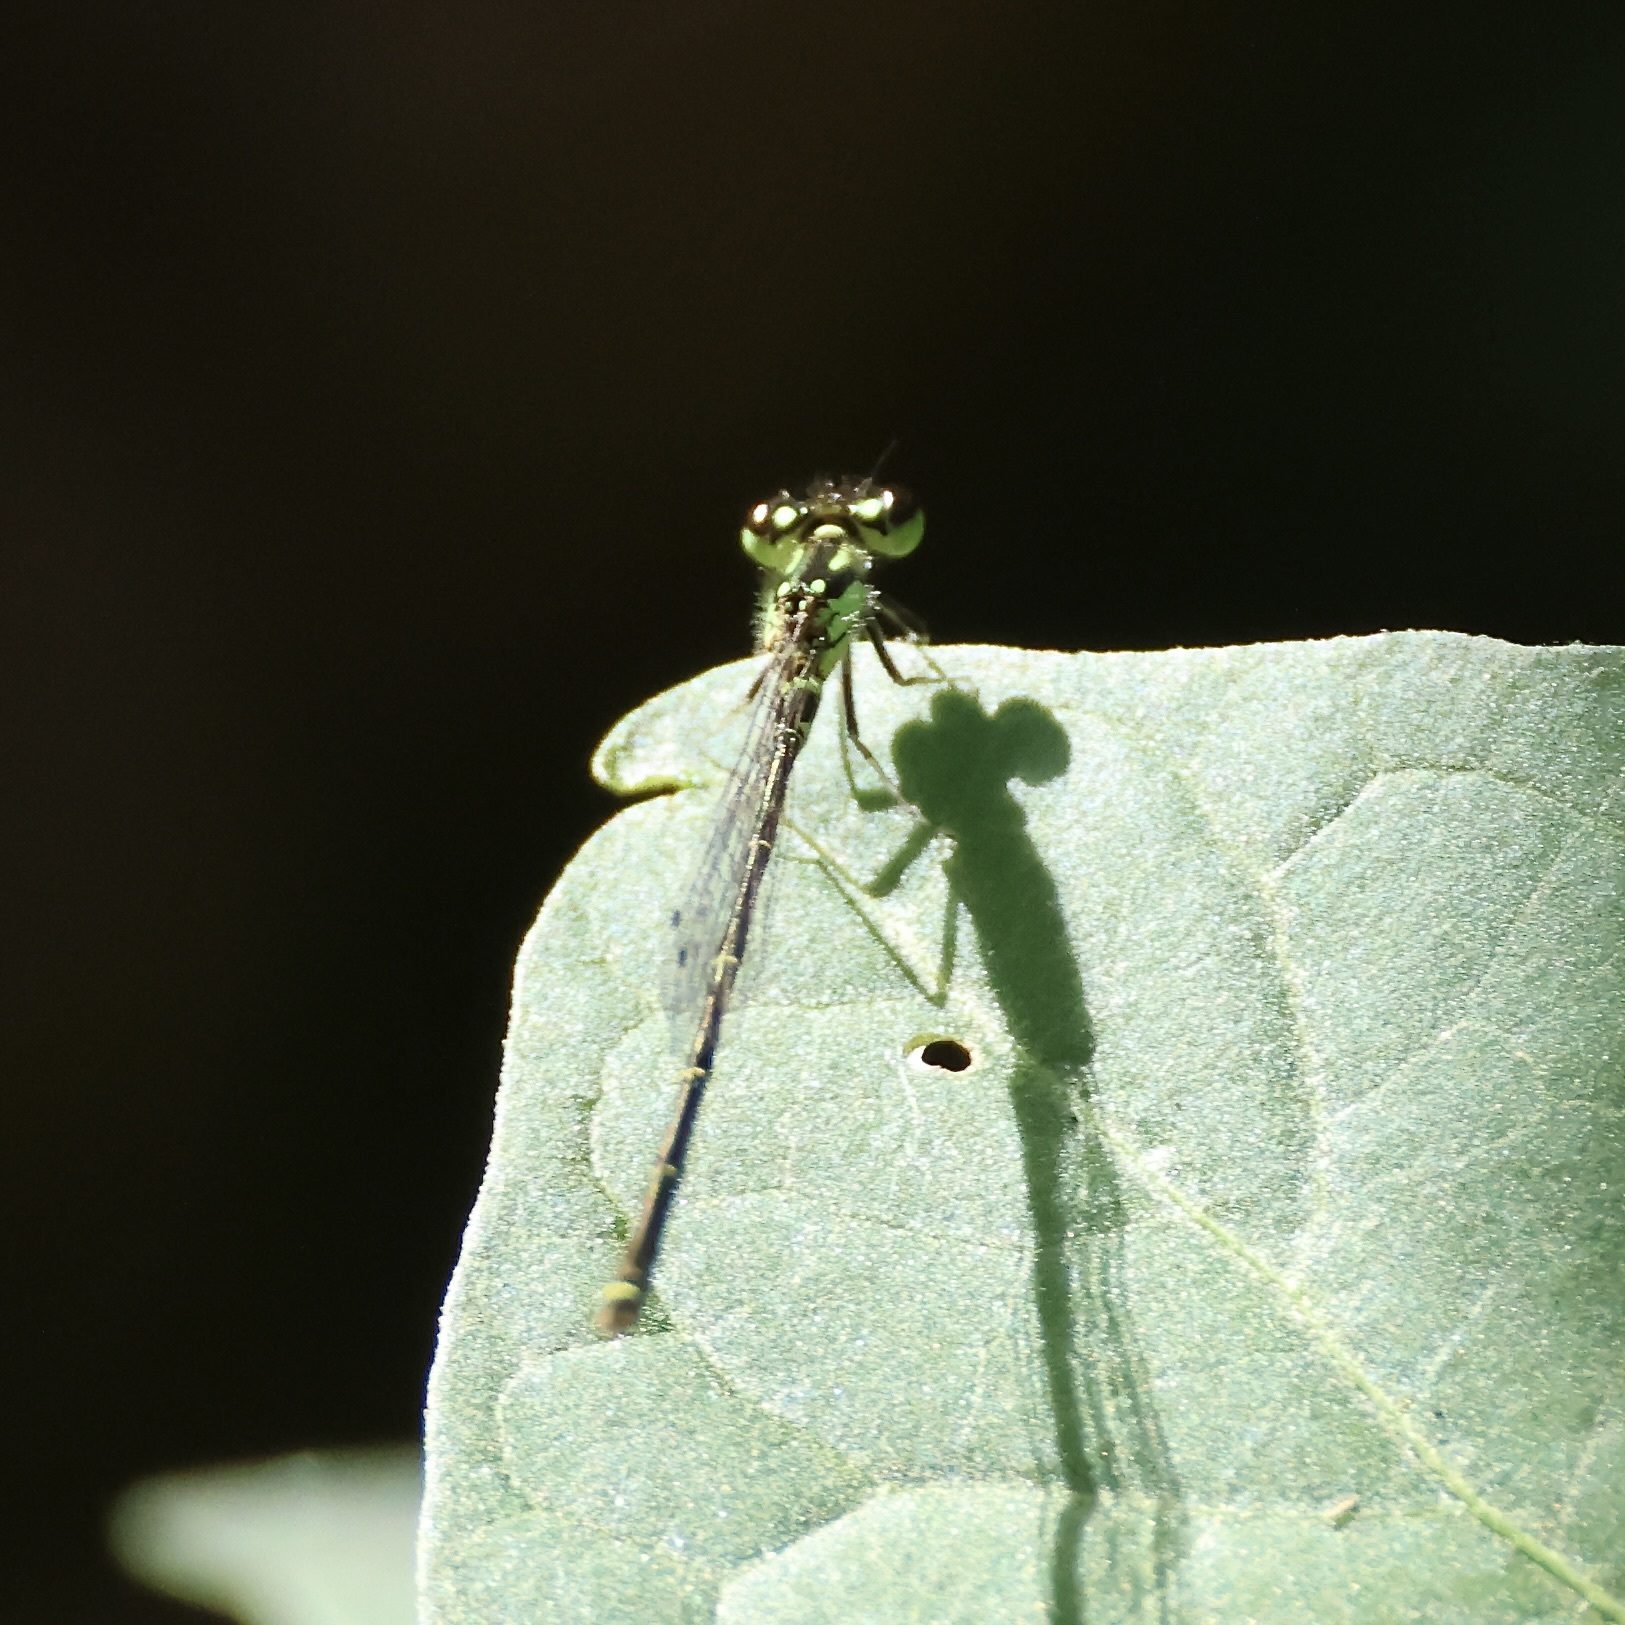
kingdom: Animalia
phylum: Arthropoda
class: Insecta
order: Odonata
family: Coenagrionidae
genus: Ischnura
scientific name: Ischnura posita
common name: Fragile forktail
